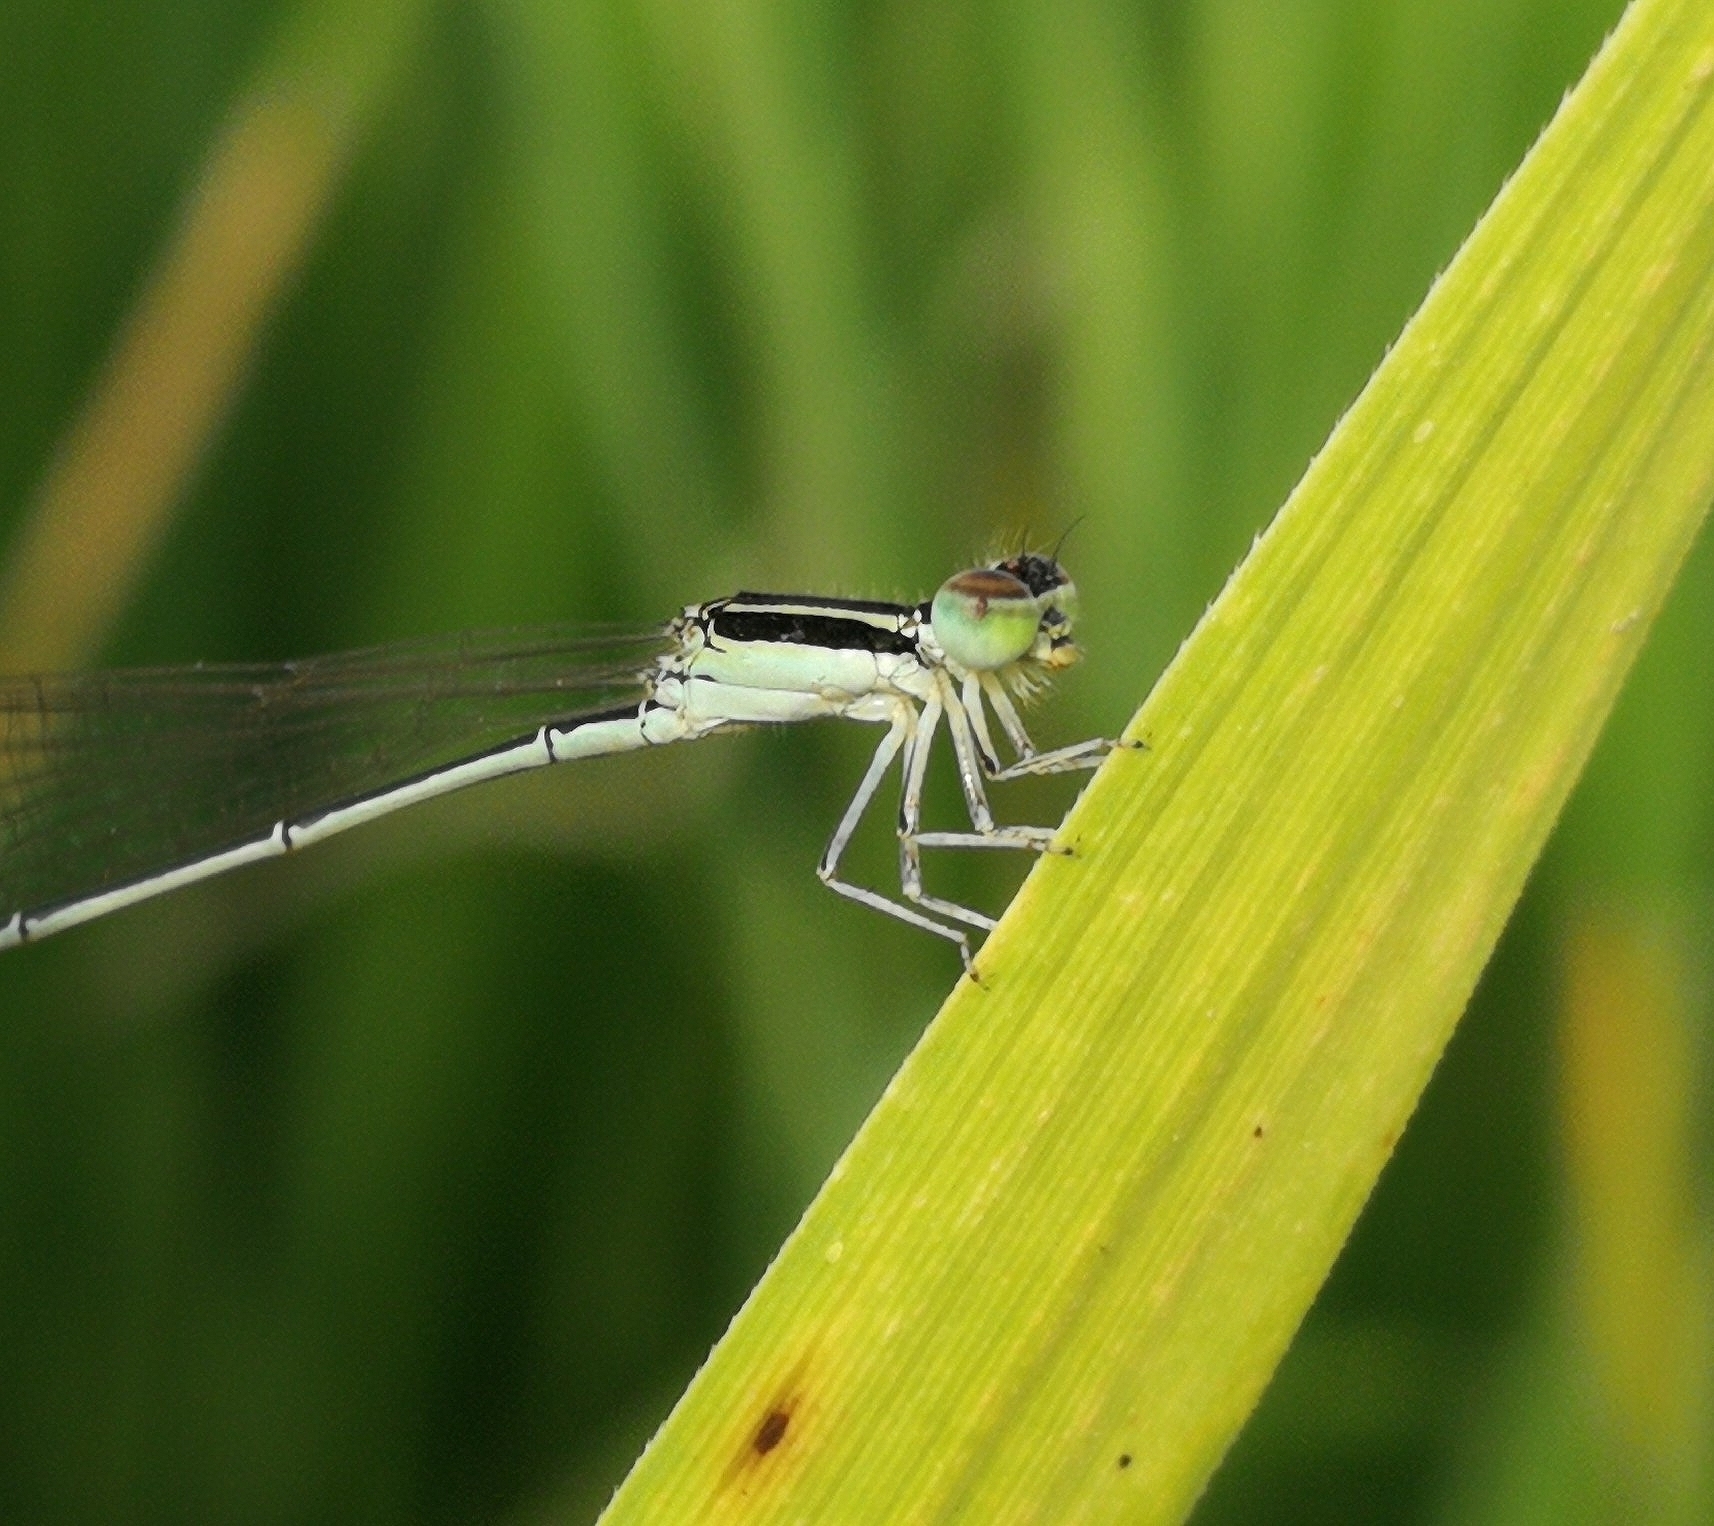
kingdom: Animalia
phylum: Arthropoda
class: Insecta
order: Odonata
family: Coenagrionidae
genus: Aciagrion
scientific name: Aciagrion occidentale
